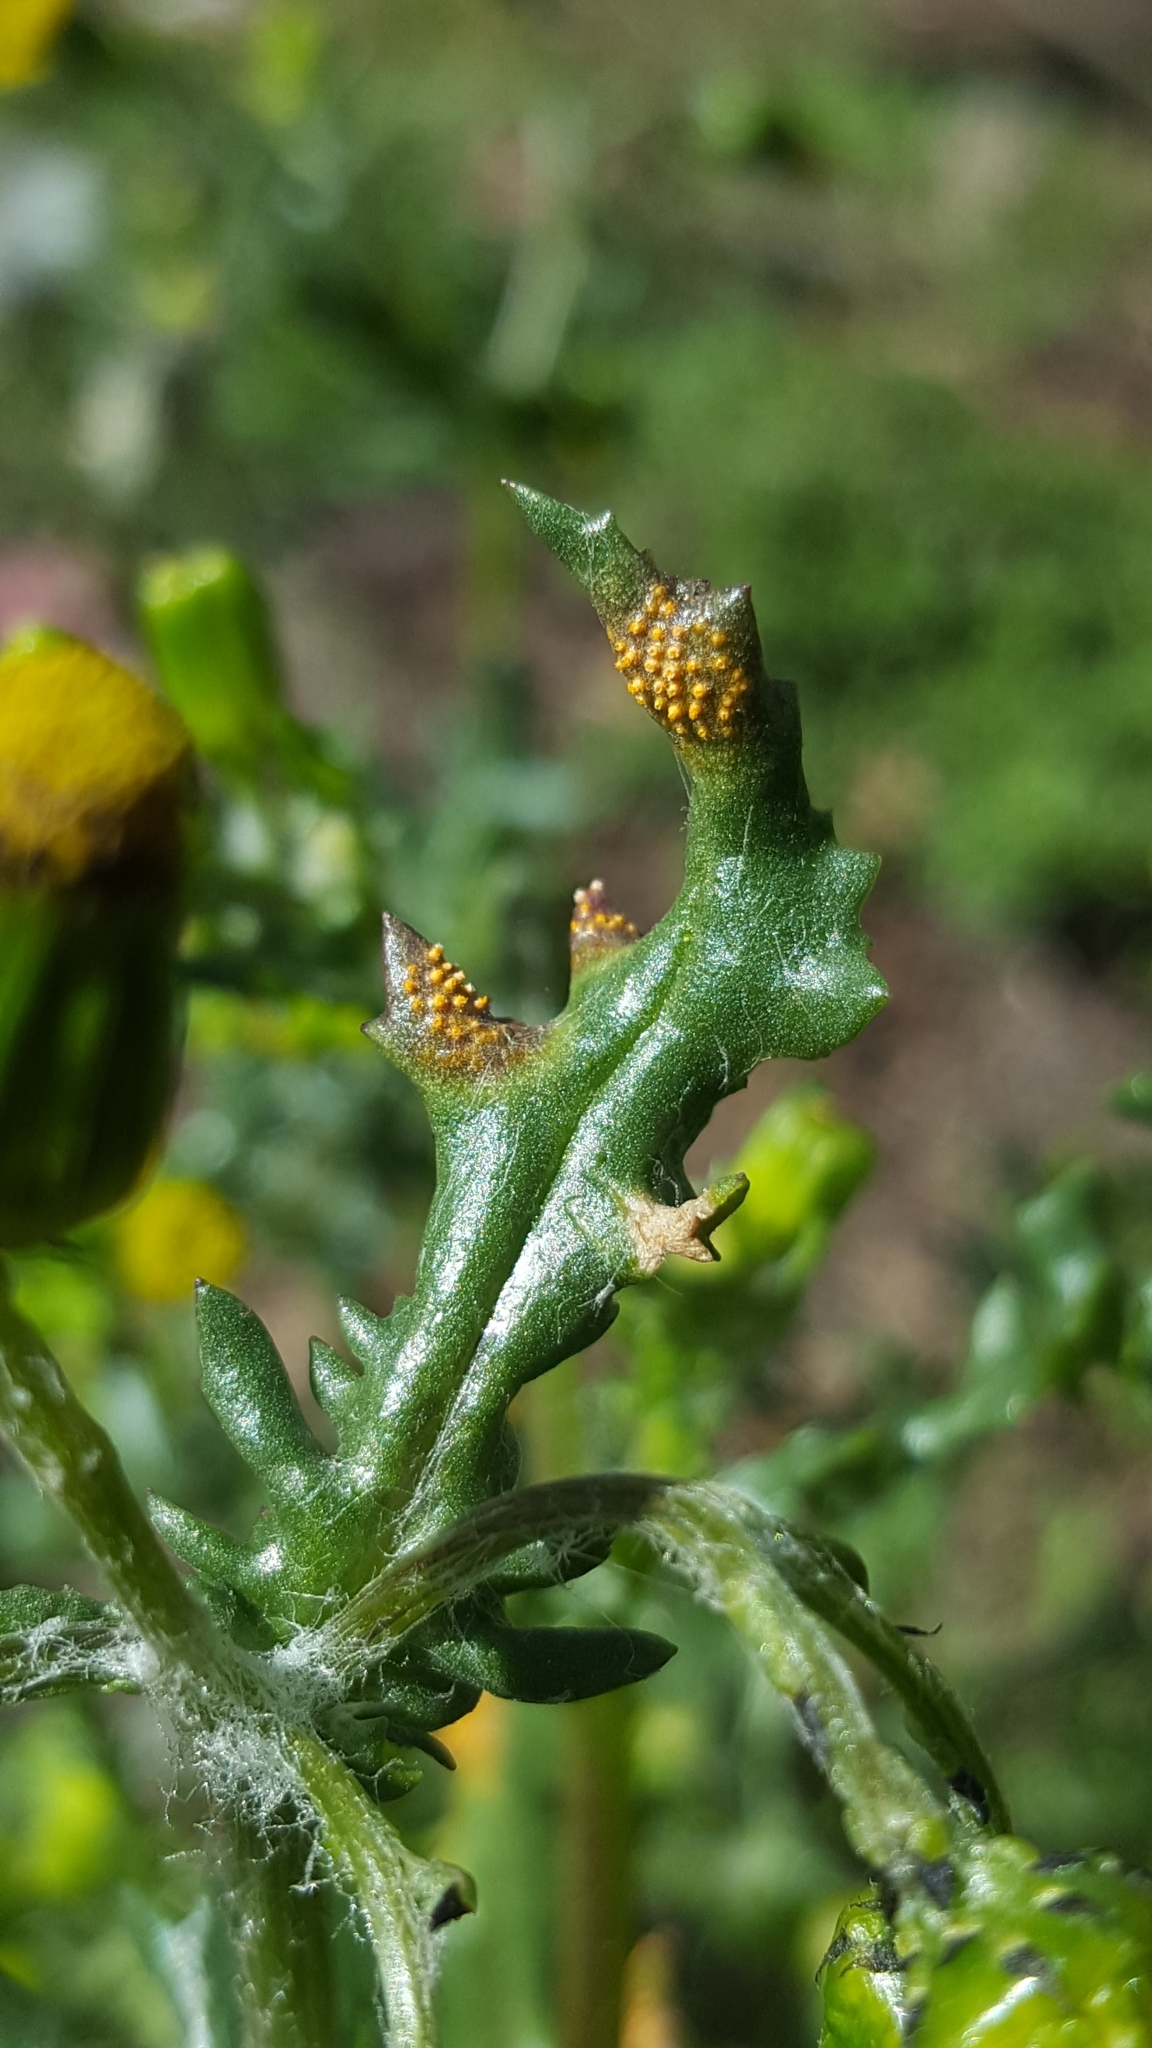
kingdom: Fungi
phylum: Basidiomycota
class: Pucciniomycetes
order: Pucciniales
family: Pucciniaceae
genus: Puccinia
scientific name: Puccinia lagenophorae
